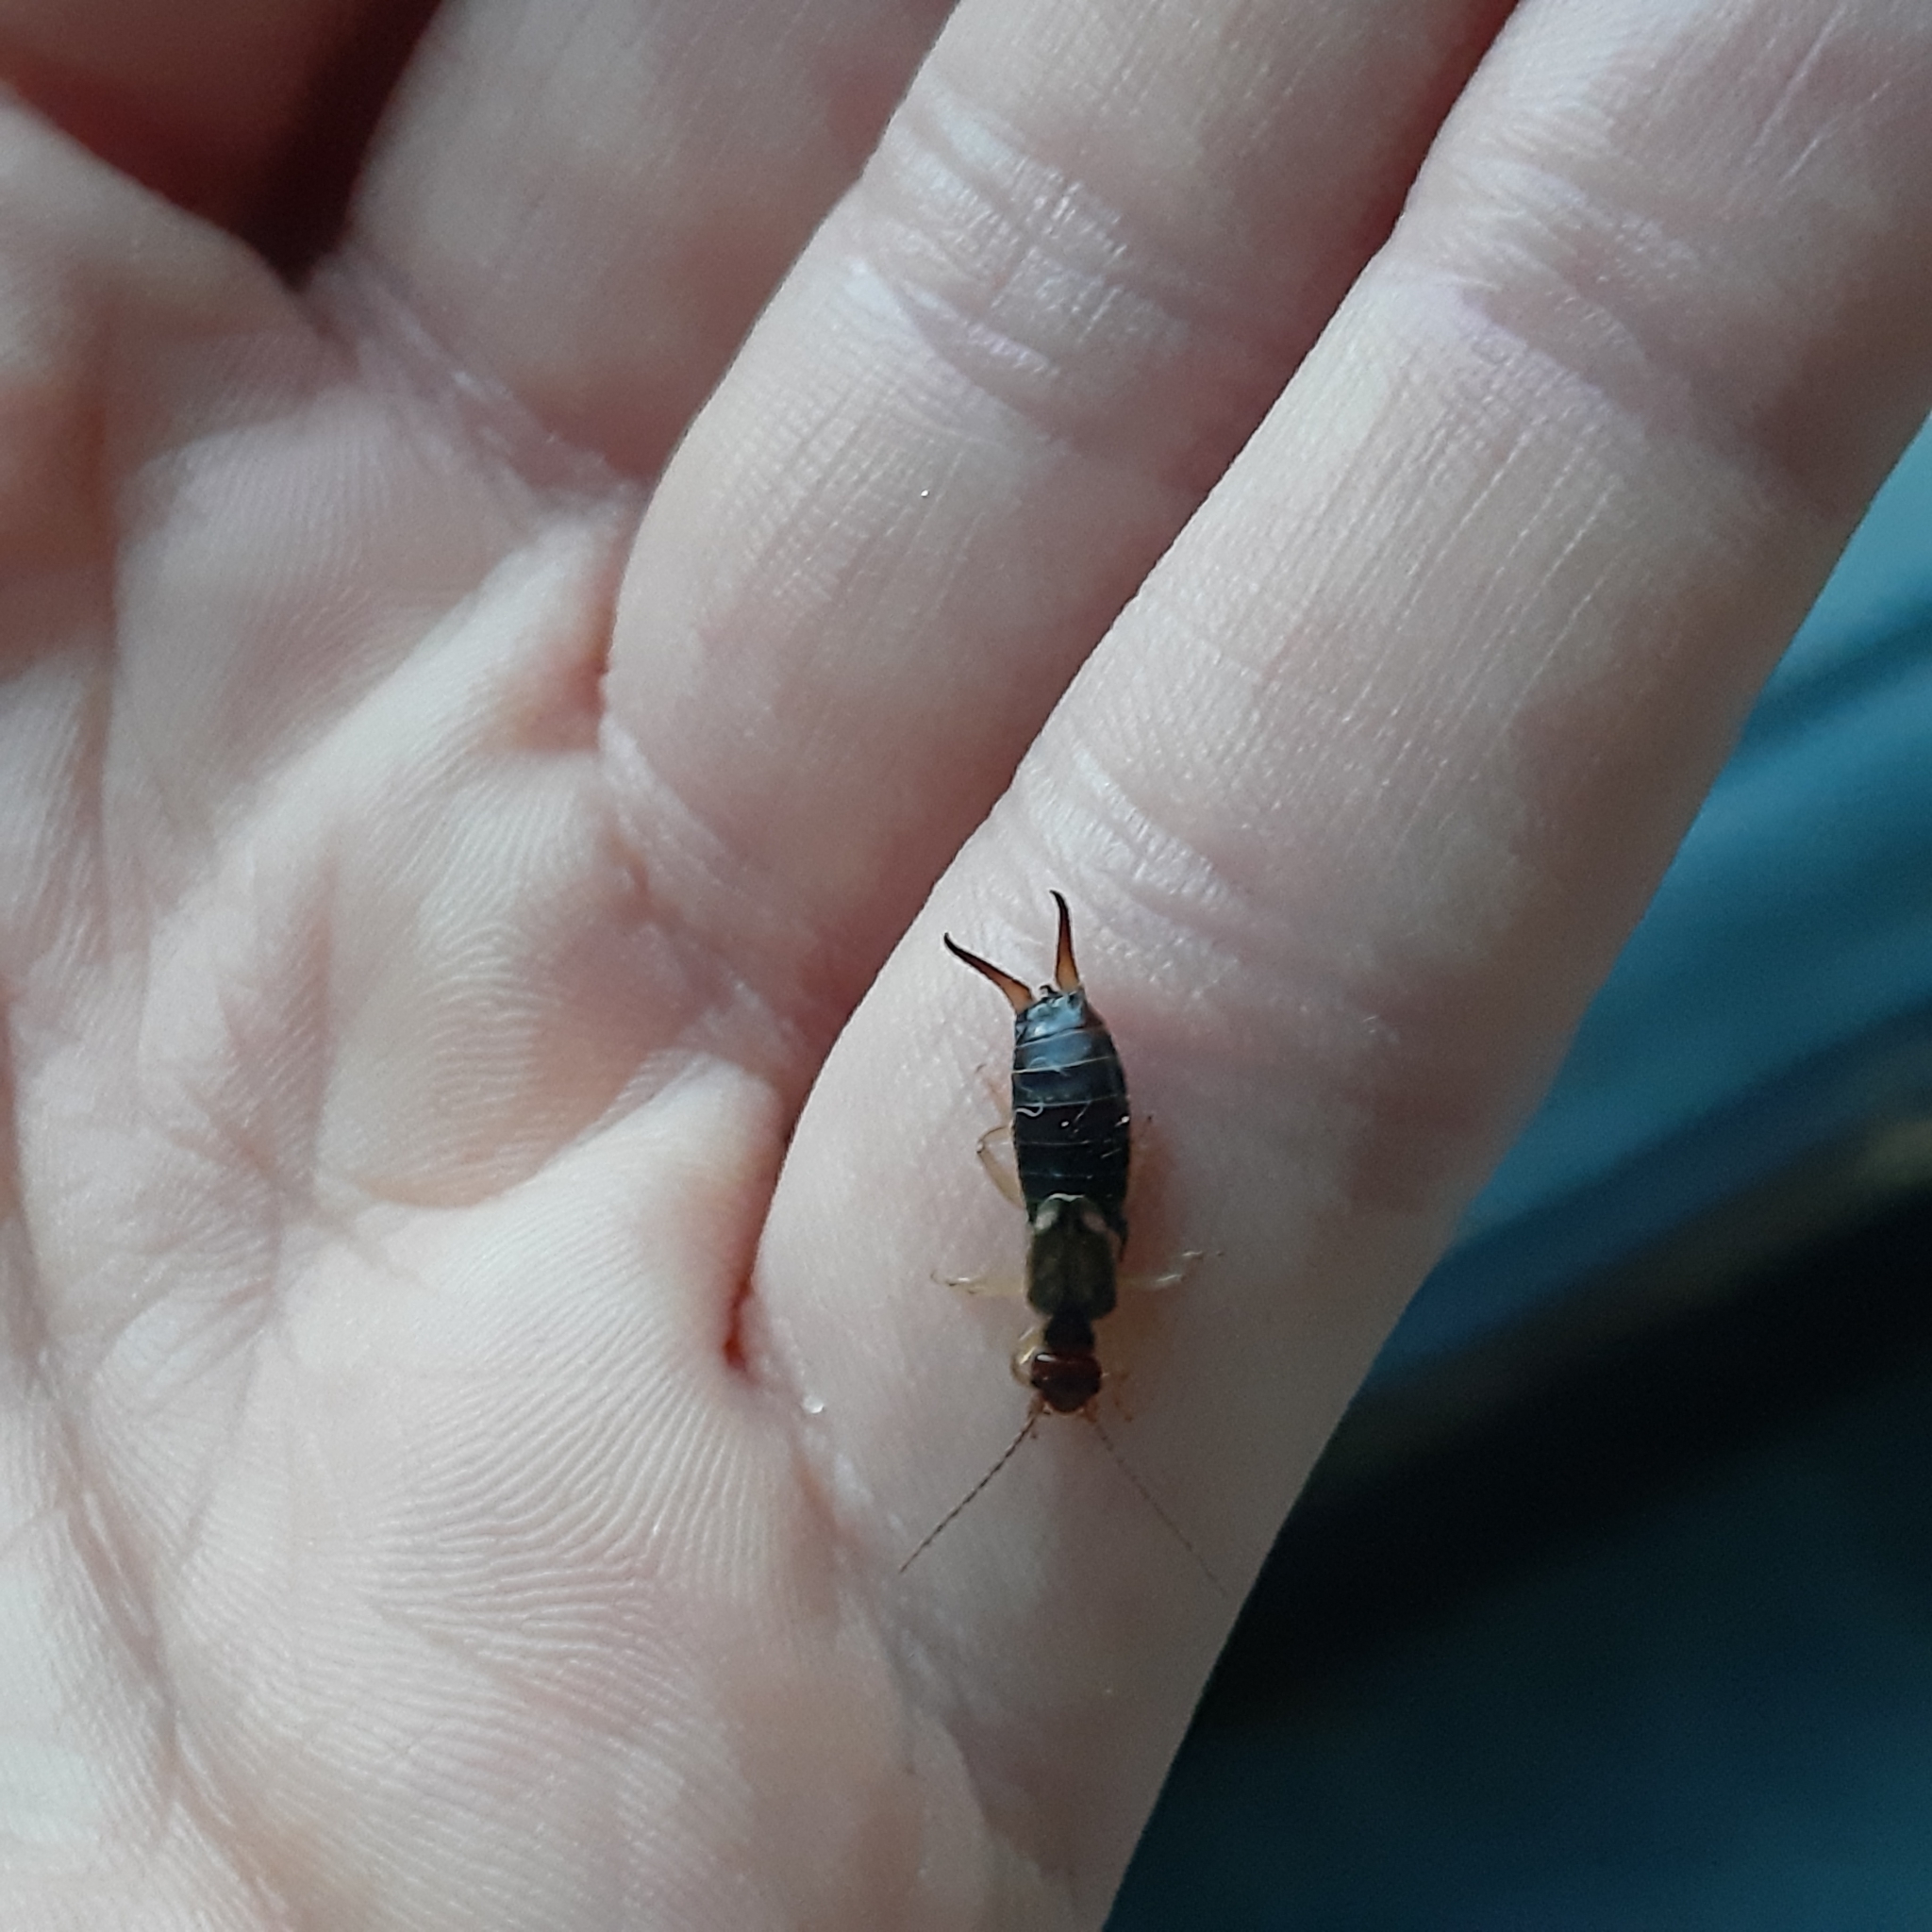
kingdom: Animalia
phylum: Arthropoda
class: Insecta
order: Dermaptera
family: Forficulidae
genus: Forficula
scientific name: Forficula
